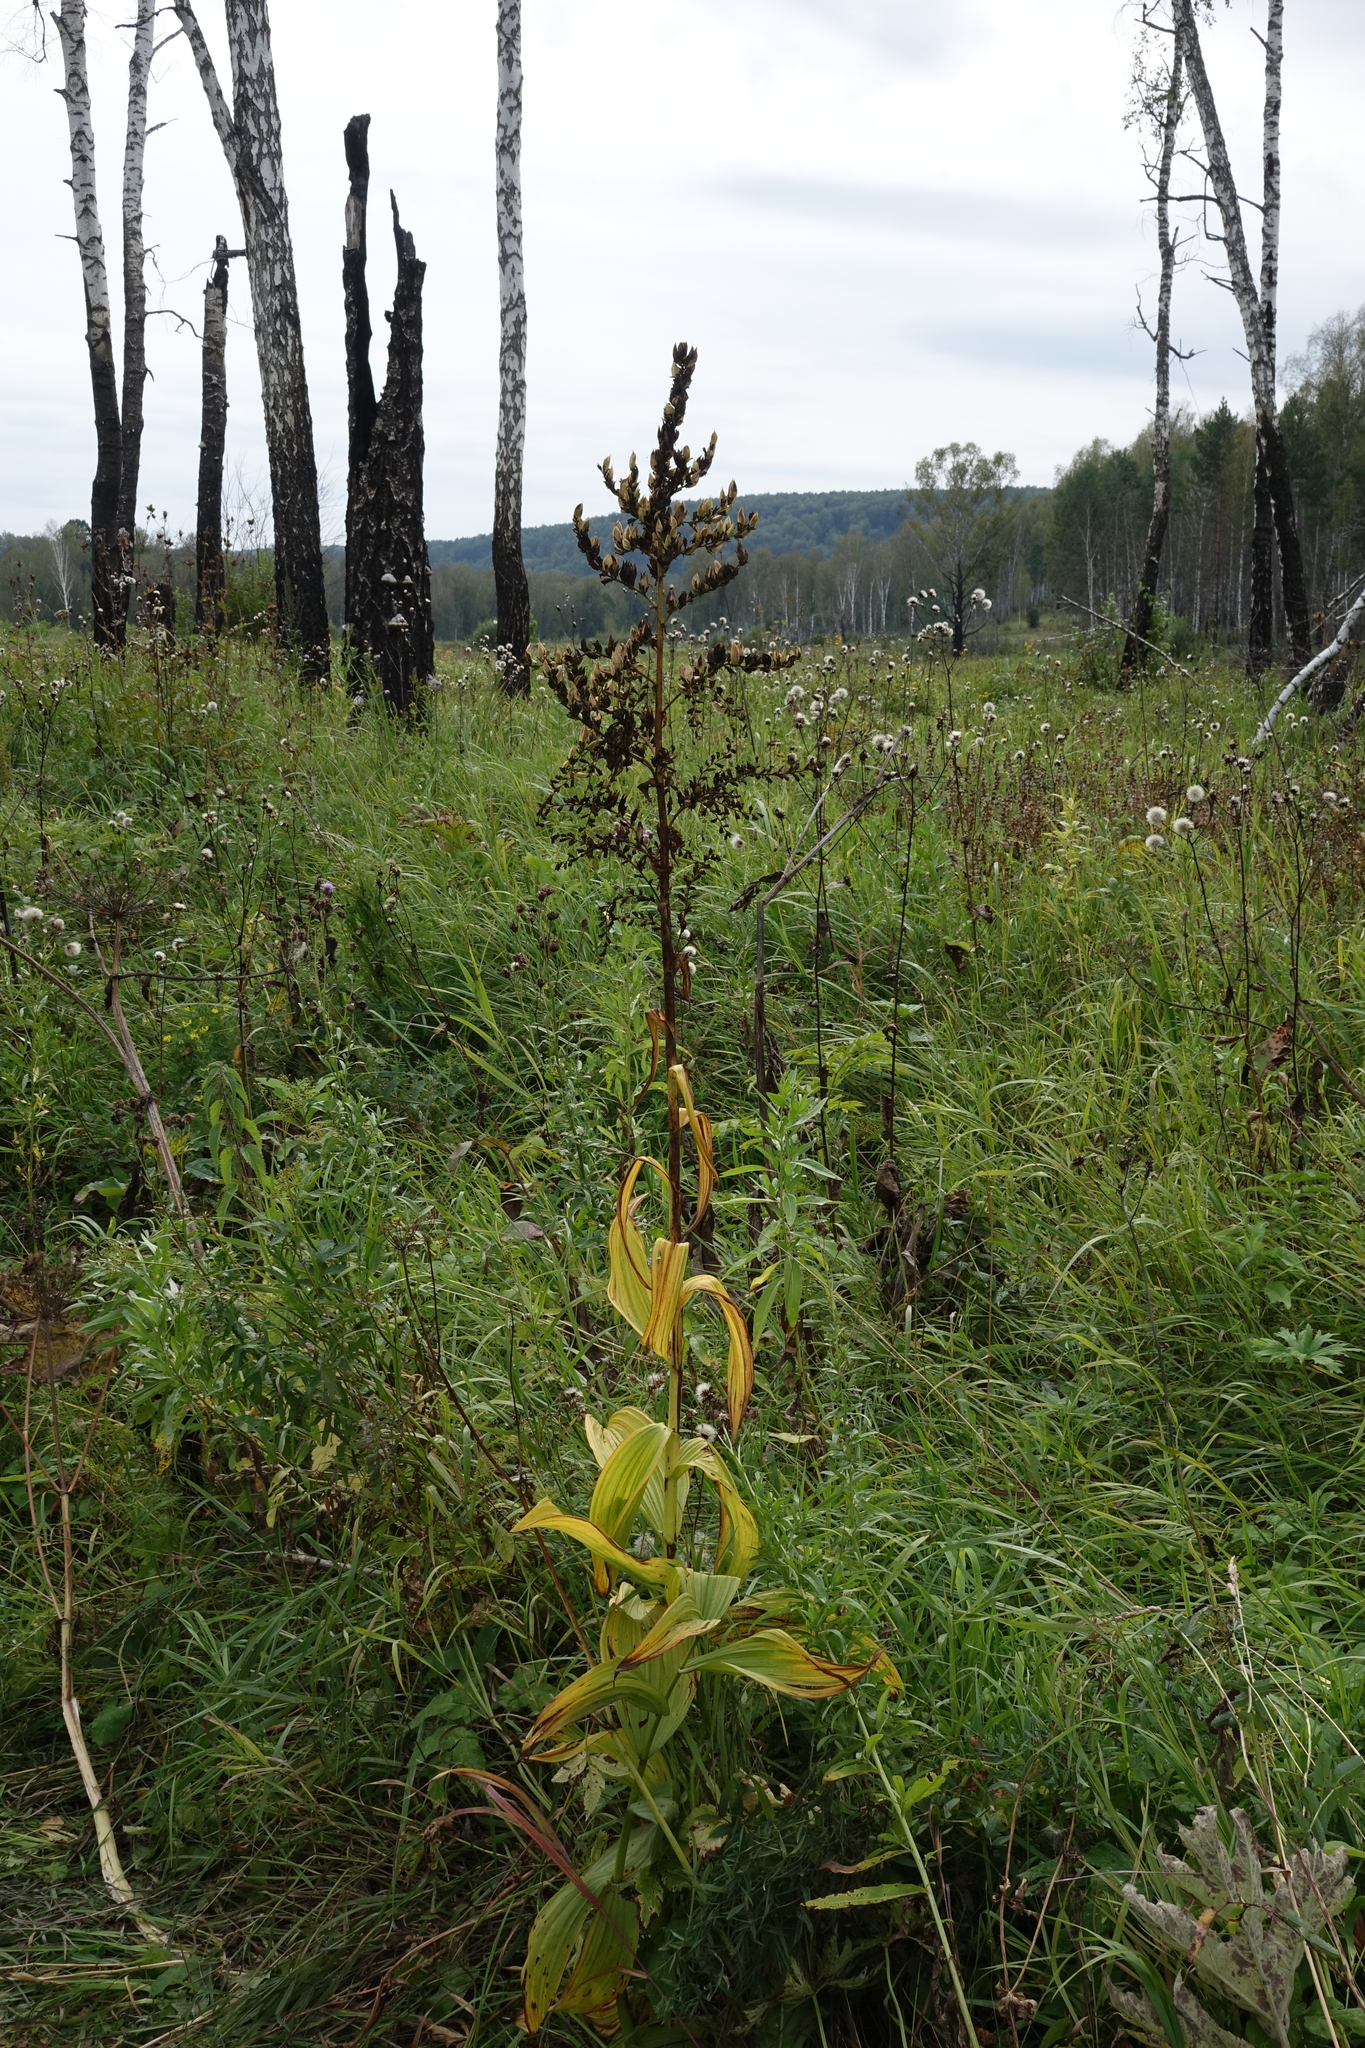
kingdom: Plantae
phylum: Tracheophyta
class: Liliopsida
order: Liliales
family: Melanthiaceae
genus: Veratrum
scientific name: Veratrum lobelianum
